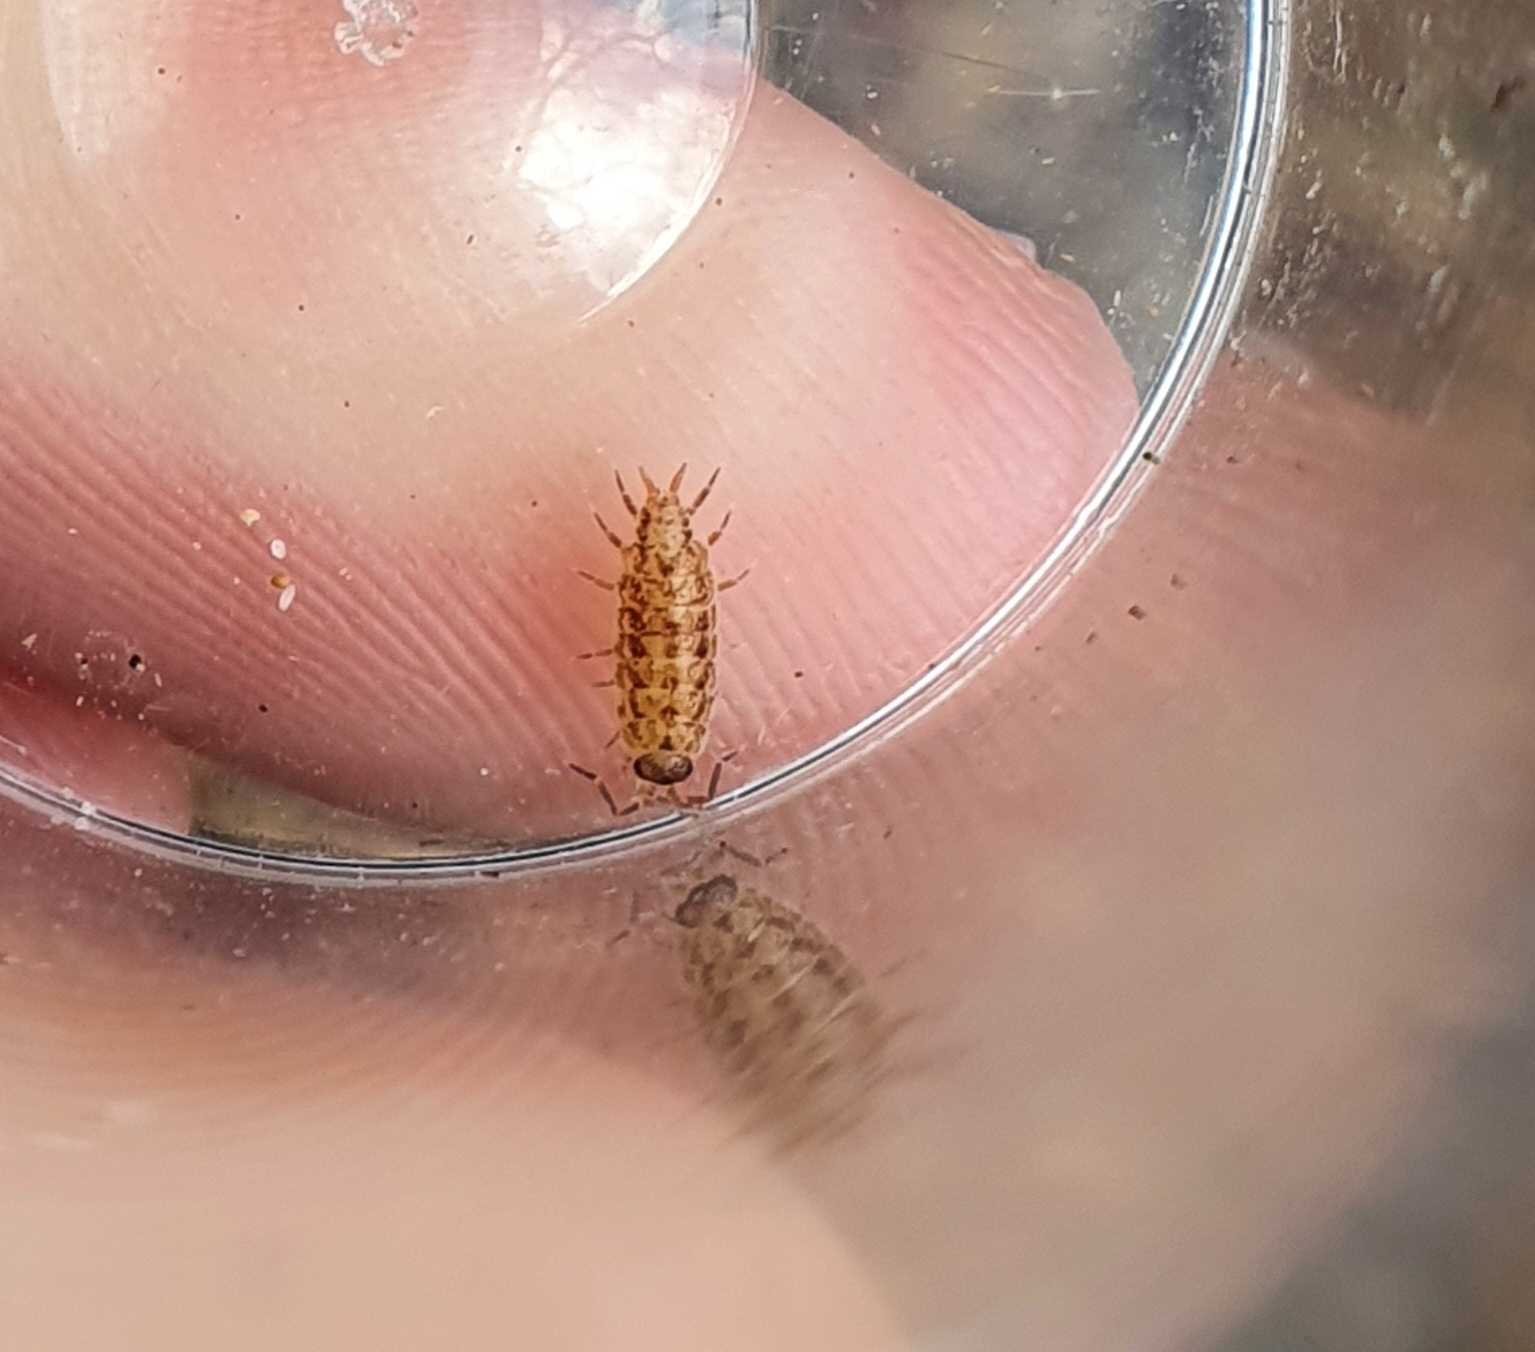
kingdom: Animalia
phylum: Arthropoda
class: Malacostraca
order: Isopoda
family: Porcellionidae
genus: Porcellionides
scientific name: Porcellionides cingendus
